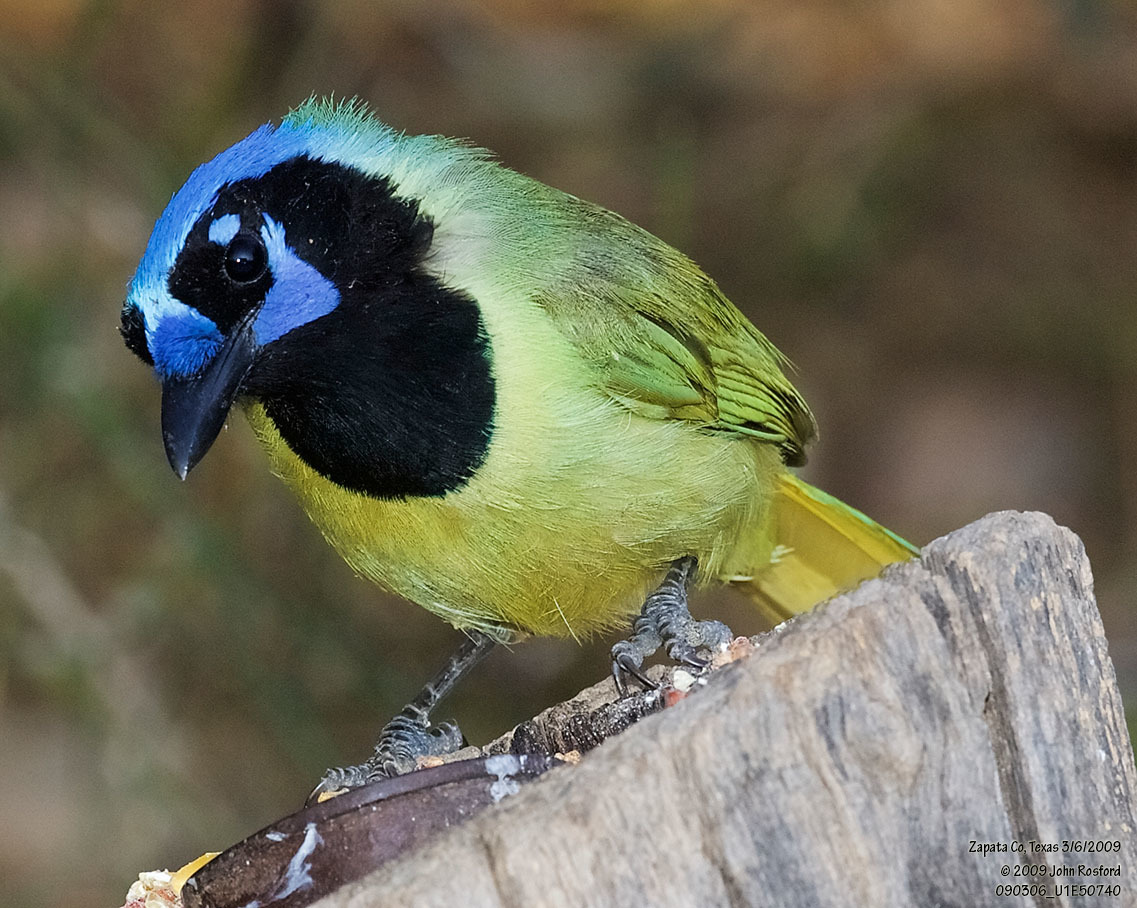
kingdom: Animalia
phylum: Chordata
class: Aves
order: Passeriformes
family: Corvidae
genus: Cyanocorax
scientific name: Cyanocorax yncas
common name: Green jay
